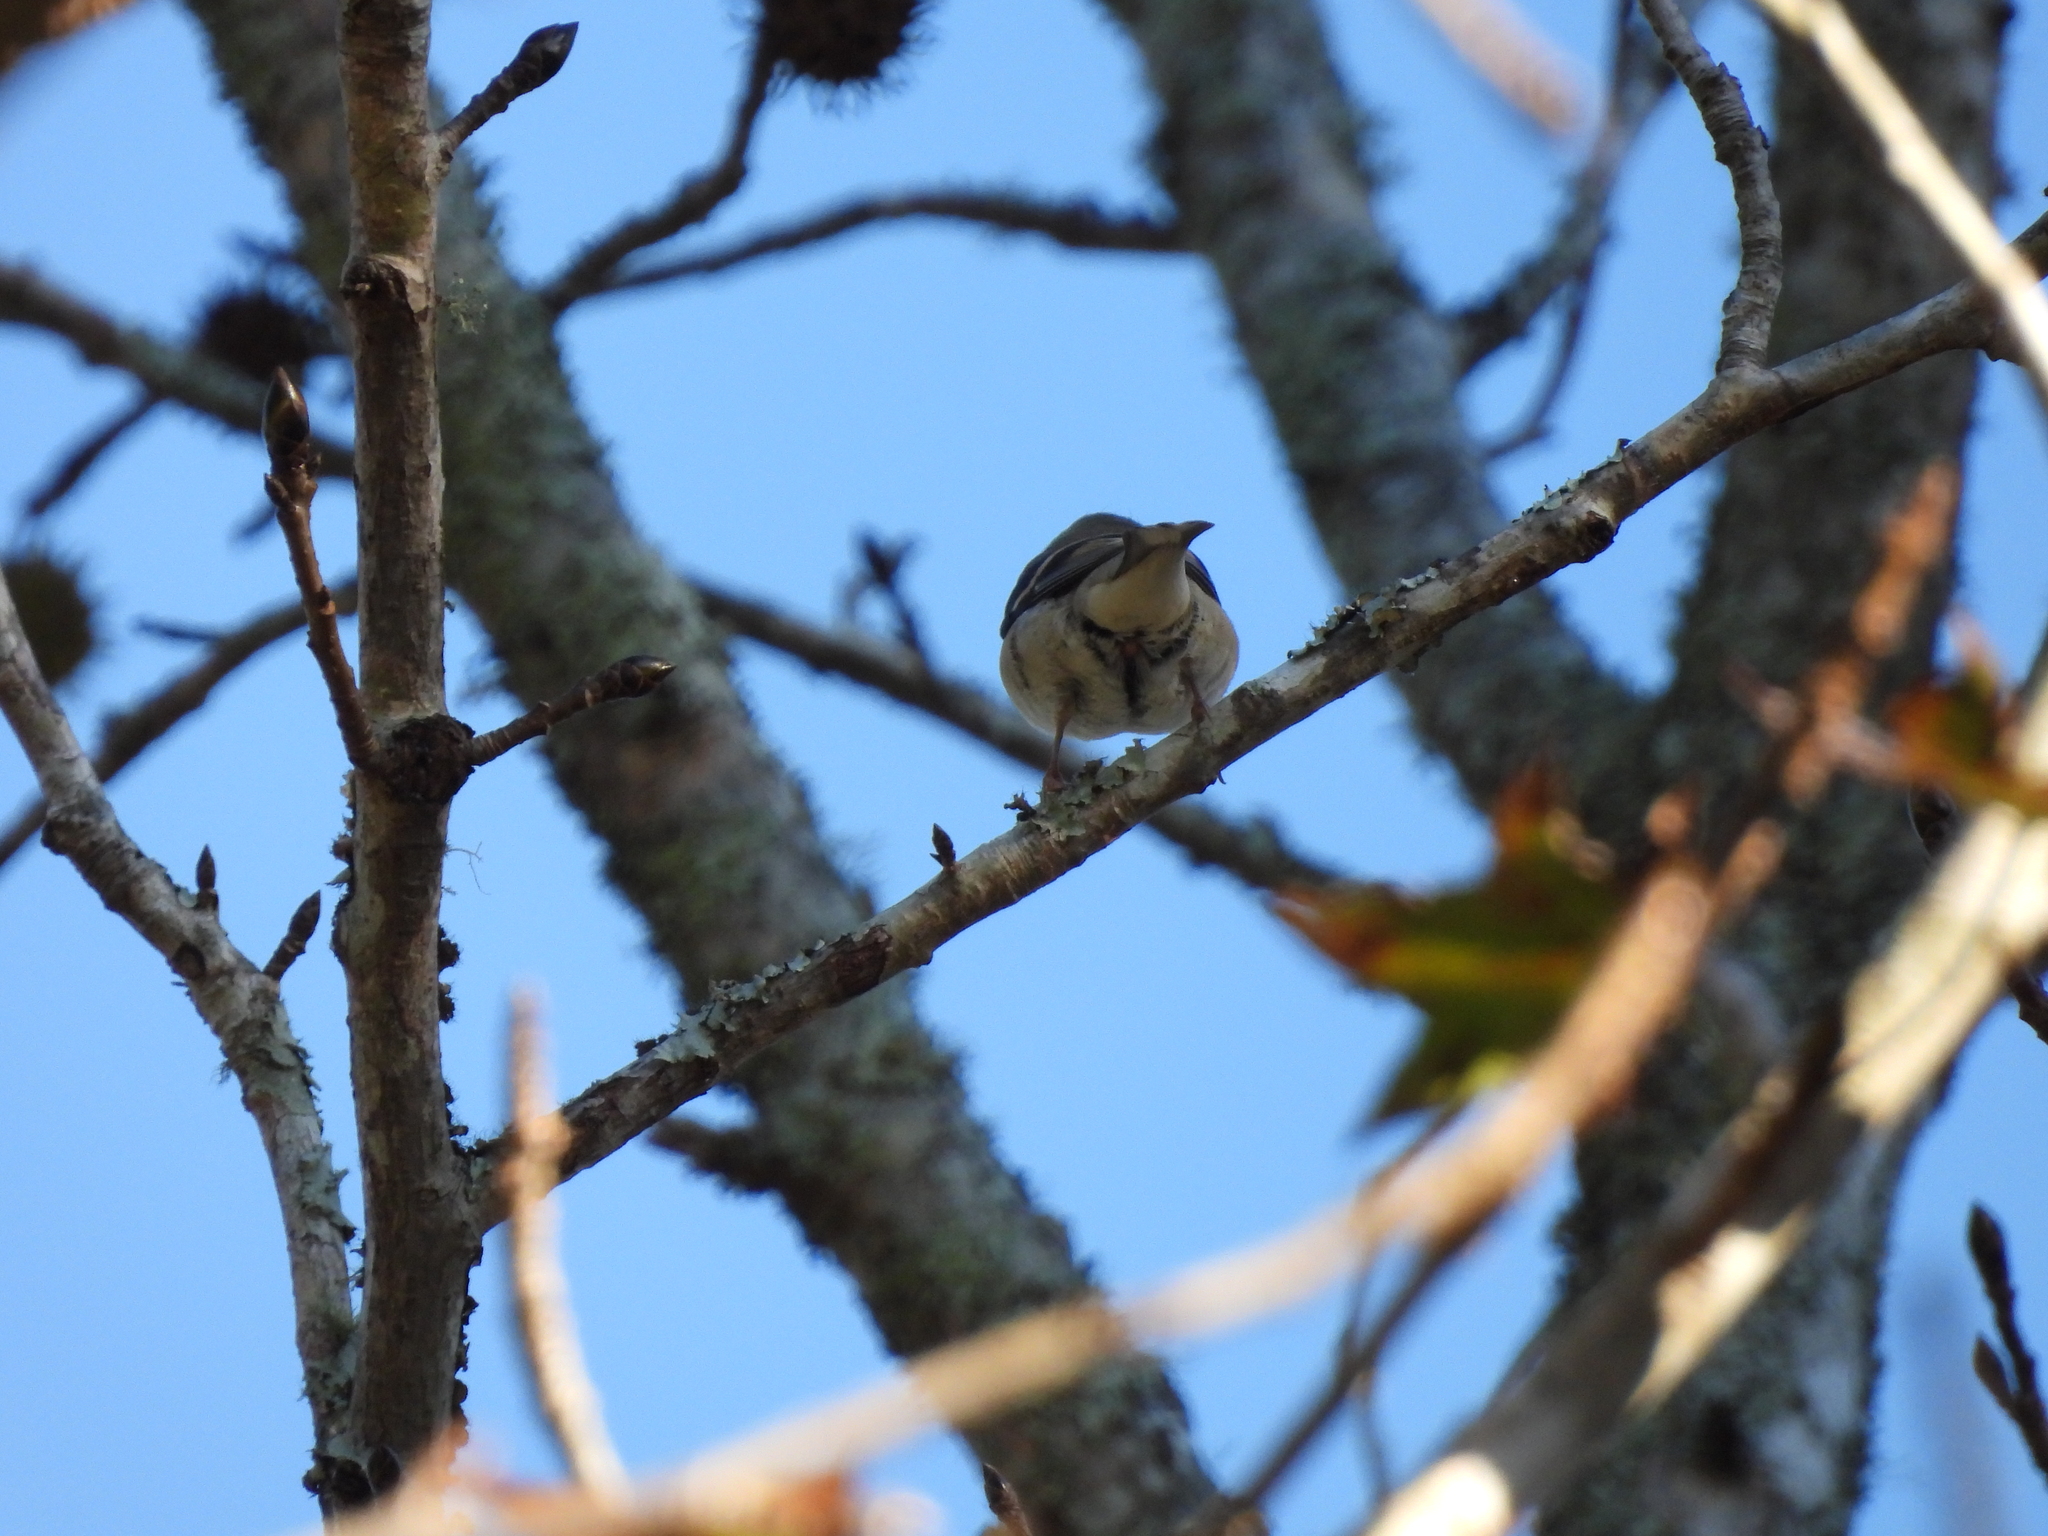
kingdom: Animalia
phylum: Chordata
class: Aves
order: Passeriformes
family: Fringillidae
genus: Spinus
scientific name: Spinus tristis
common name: American goldfinch
